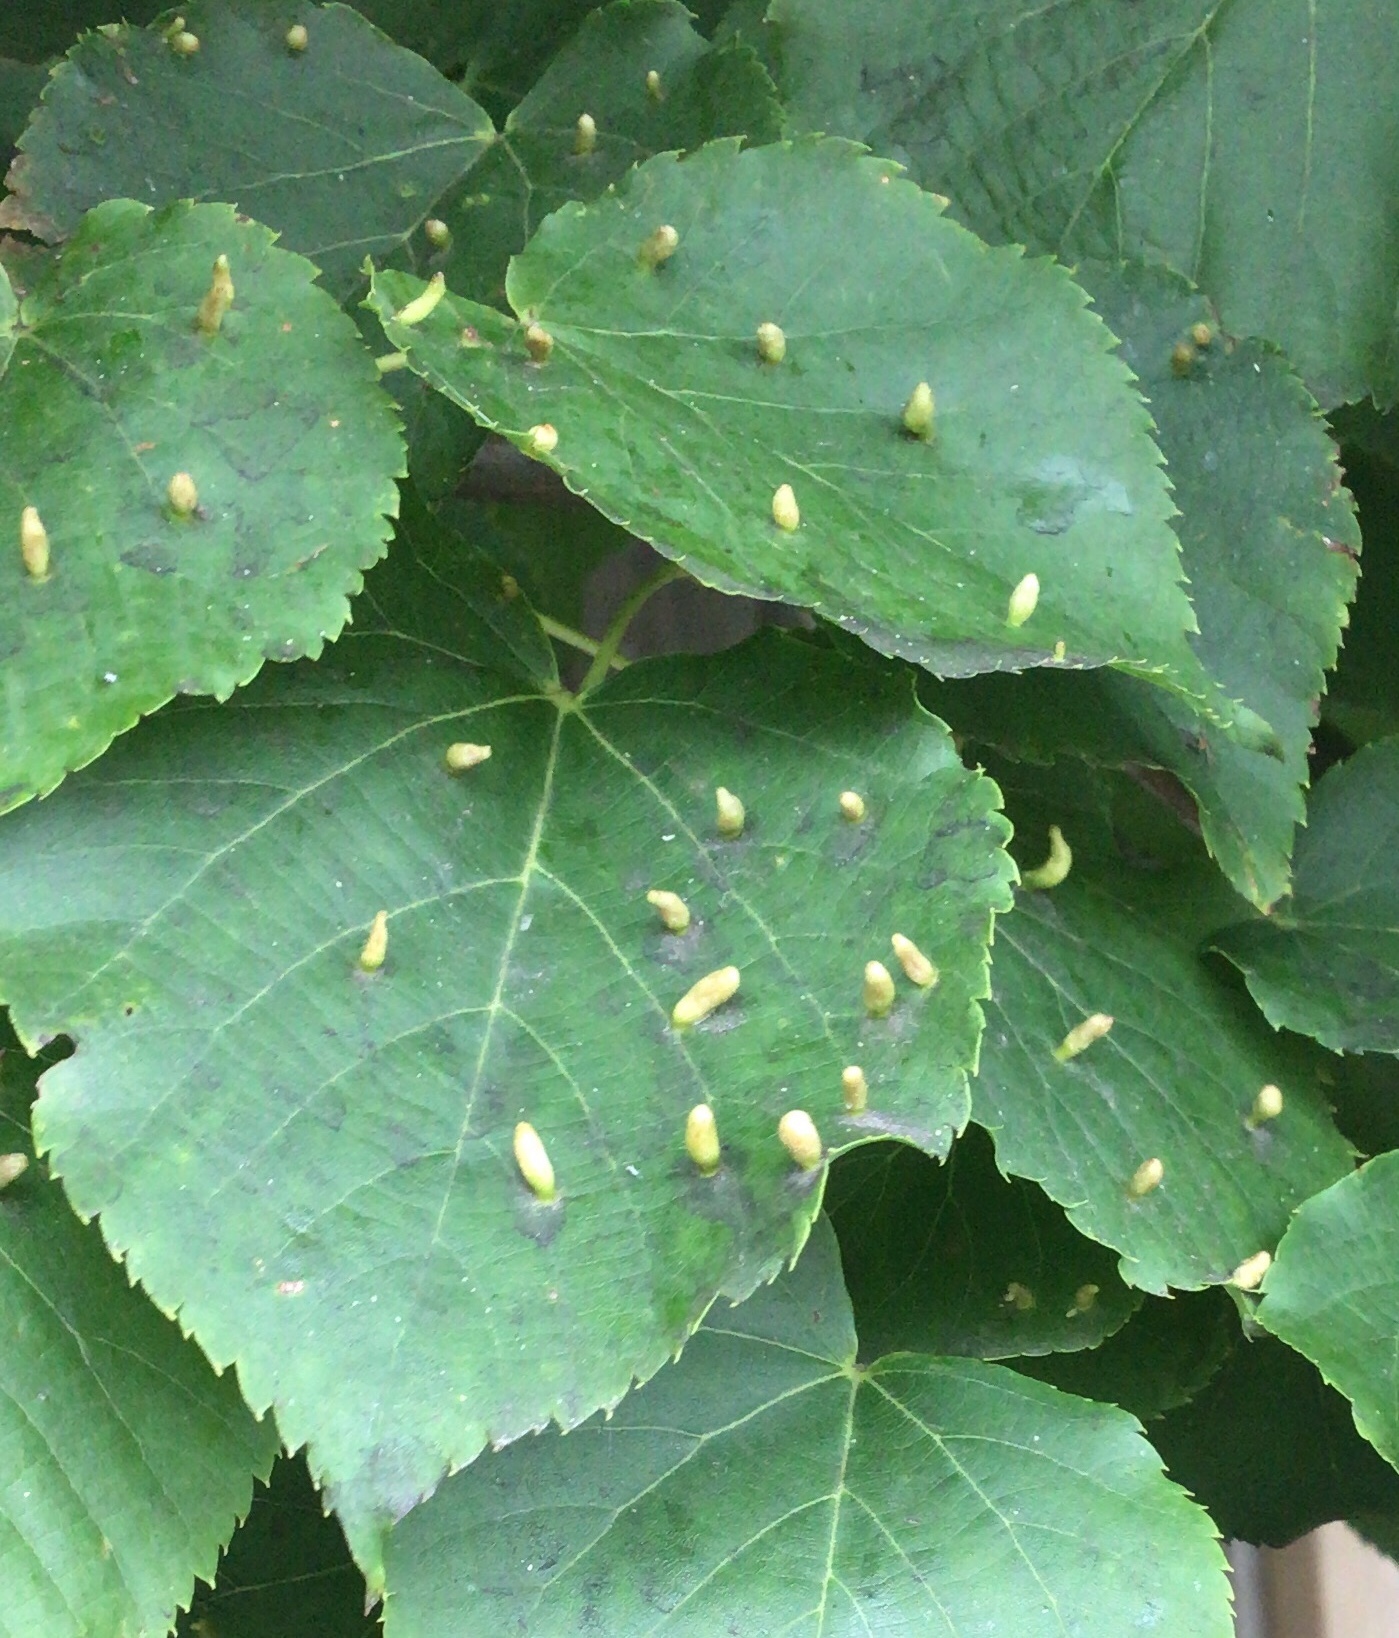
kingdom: Animalia
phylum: Arthropoda
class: Arachnida
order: Trombidiformes
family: Eriophyidae
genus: Eriophyes
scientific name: Eriophyes tiliae
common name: Red nail gall mite
